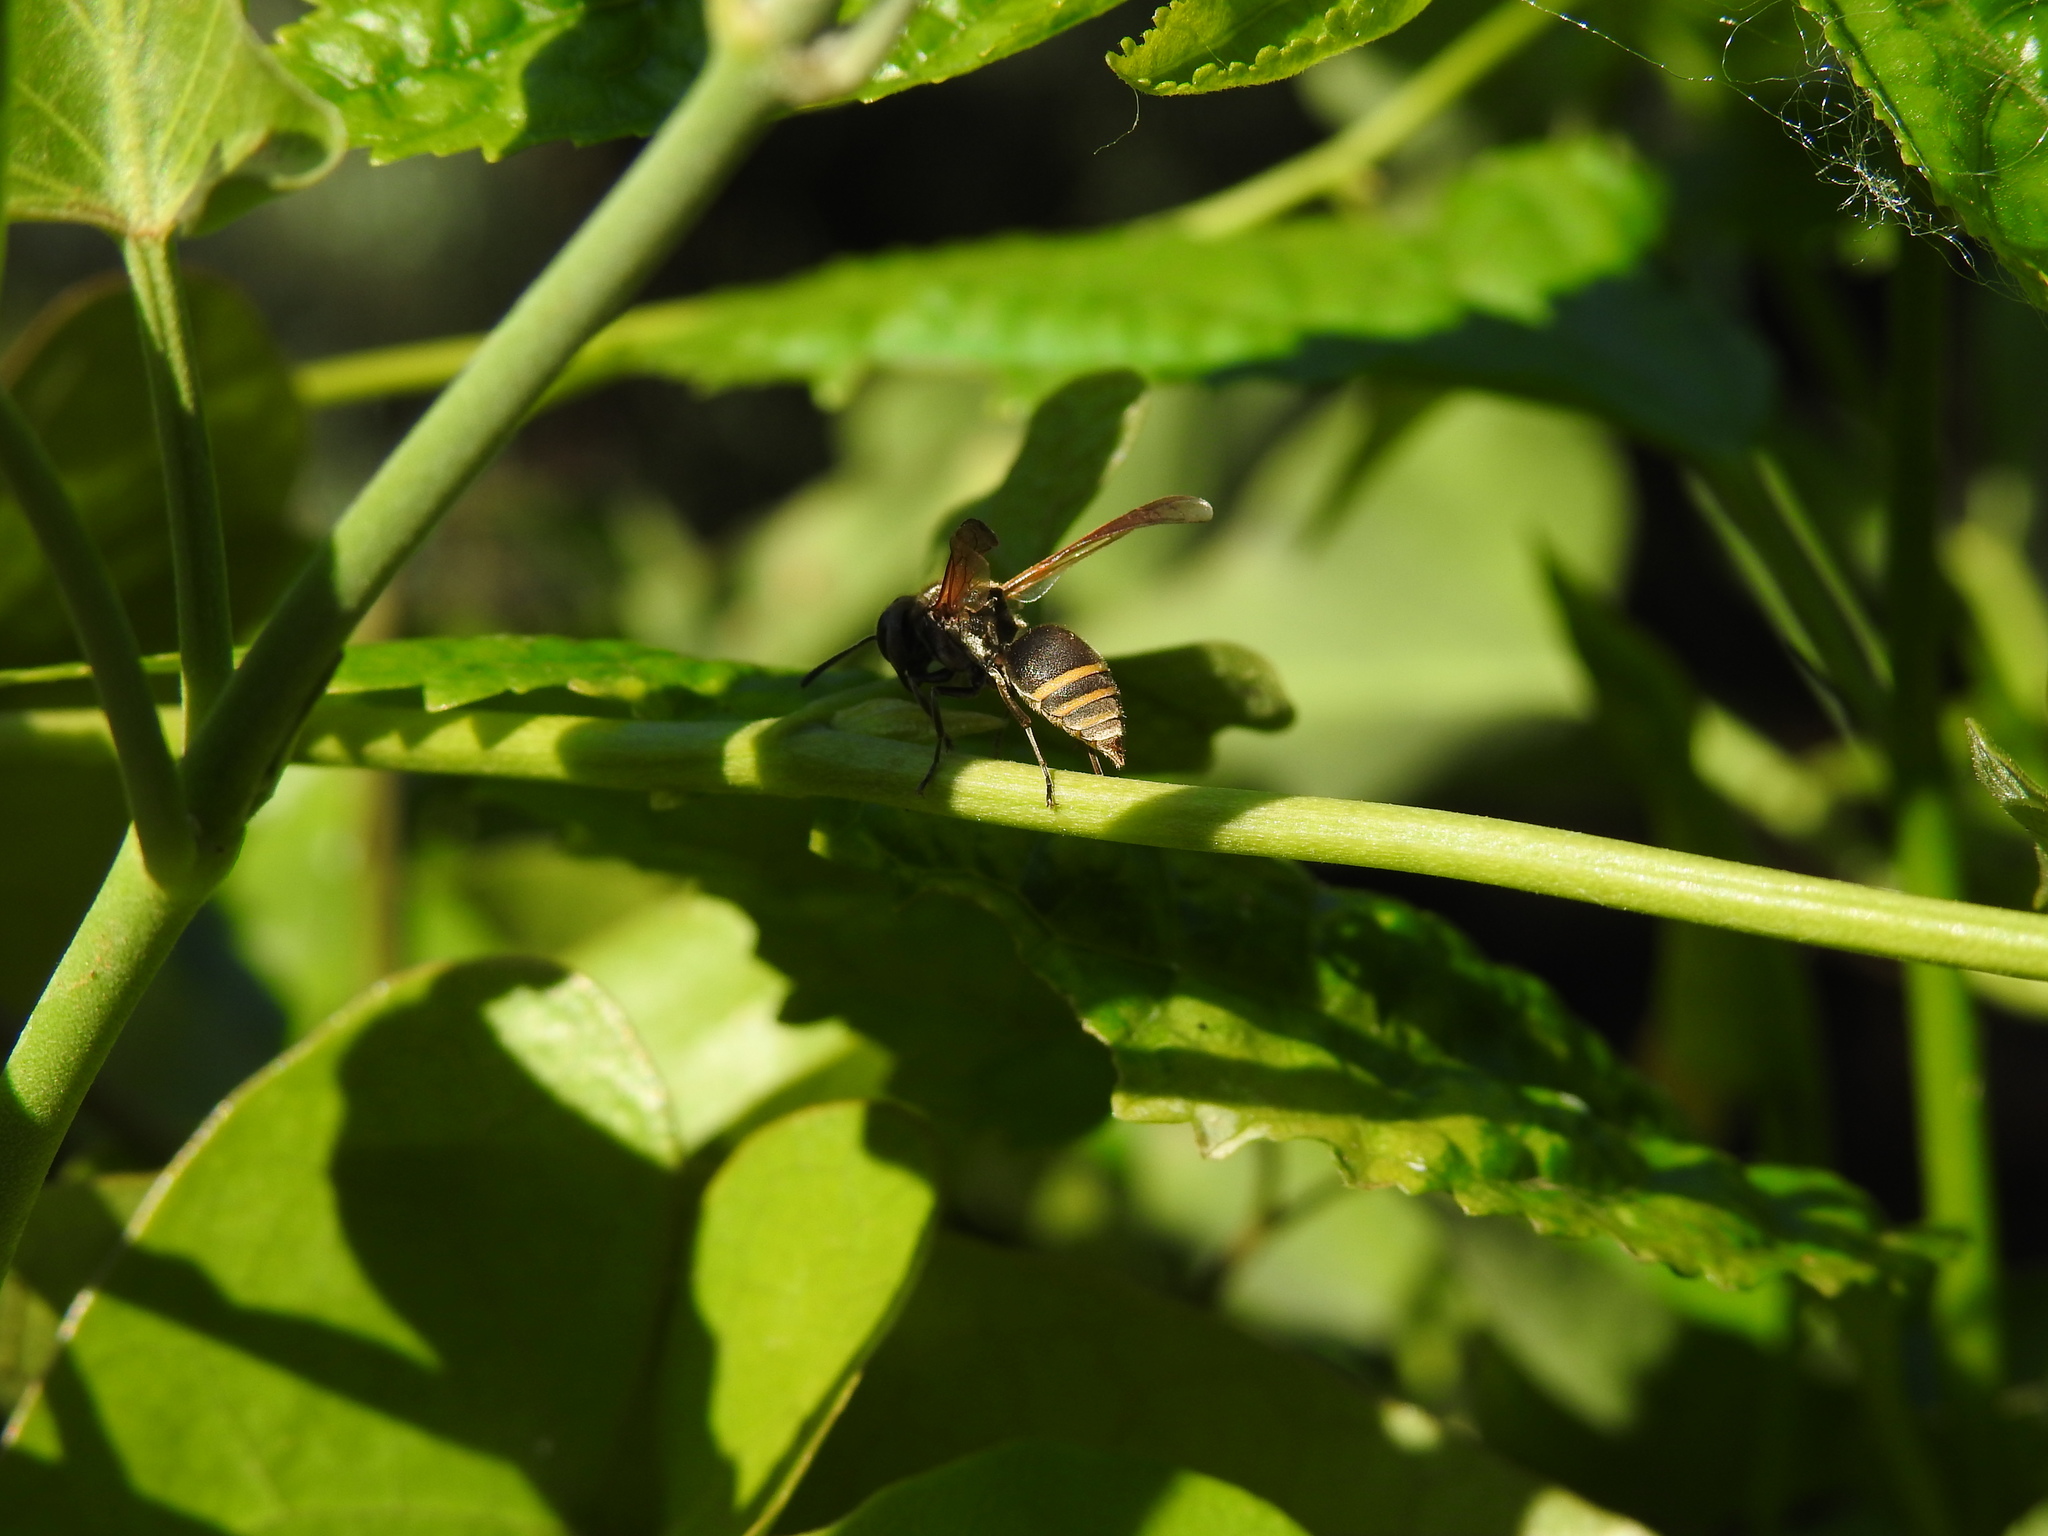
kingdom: Animalia
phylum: Arthropoda
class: Insecta
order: Hymenoptera
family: Vespidae
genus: Brachygastra
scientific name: Brachygastra lecheguana
